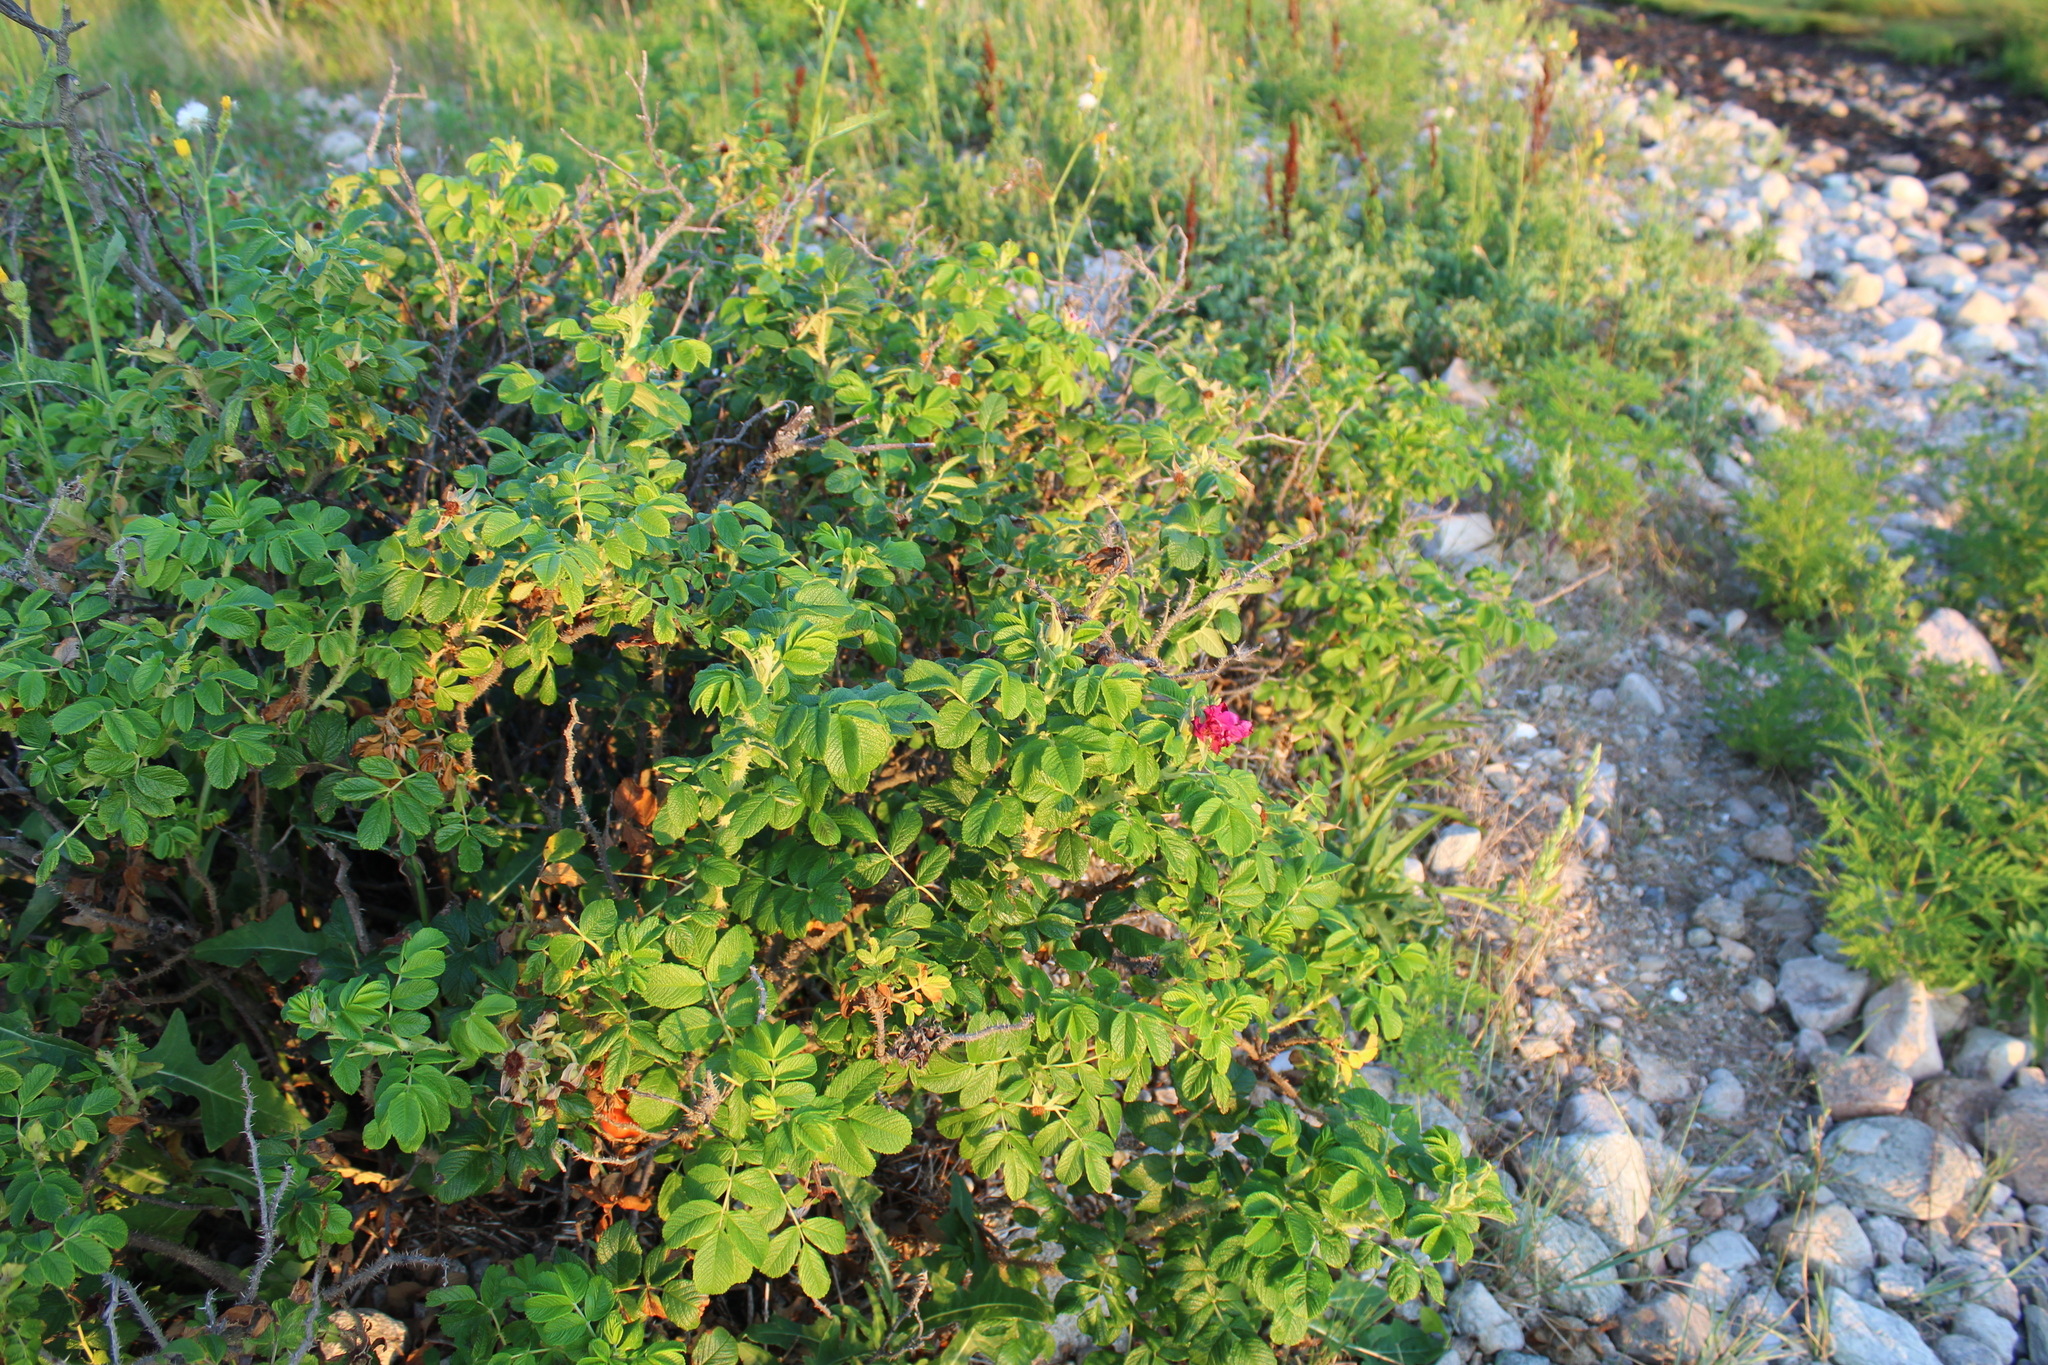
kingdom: Plantae
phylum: Tracheophyta
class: Magnoliopsida
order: Rosales
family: Rosaceae
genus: Rosa
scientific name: Rosa rugosa
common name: Japanese rose
